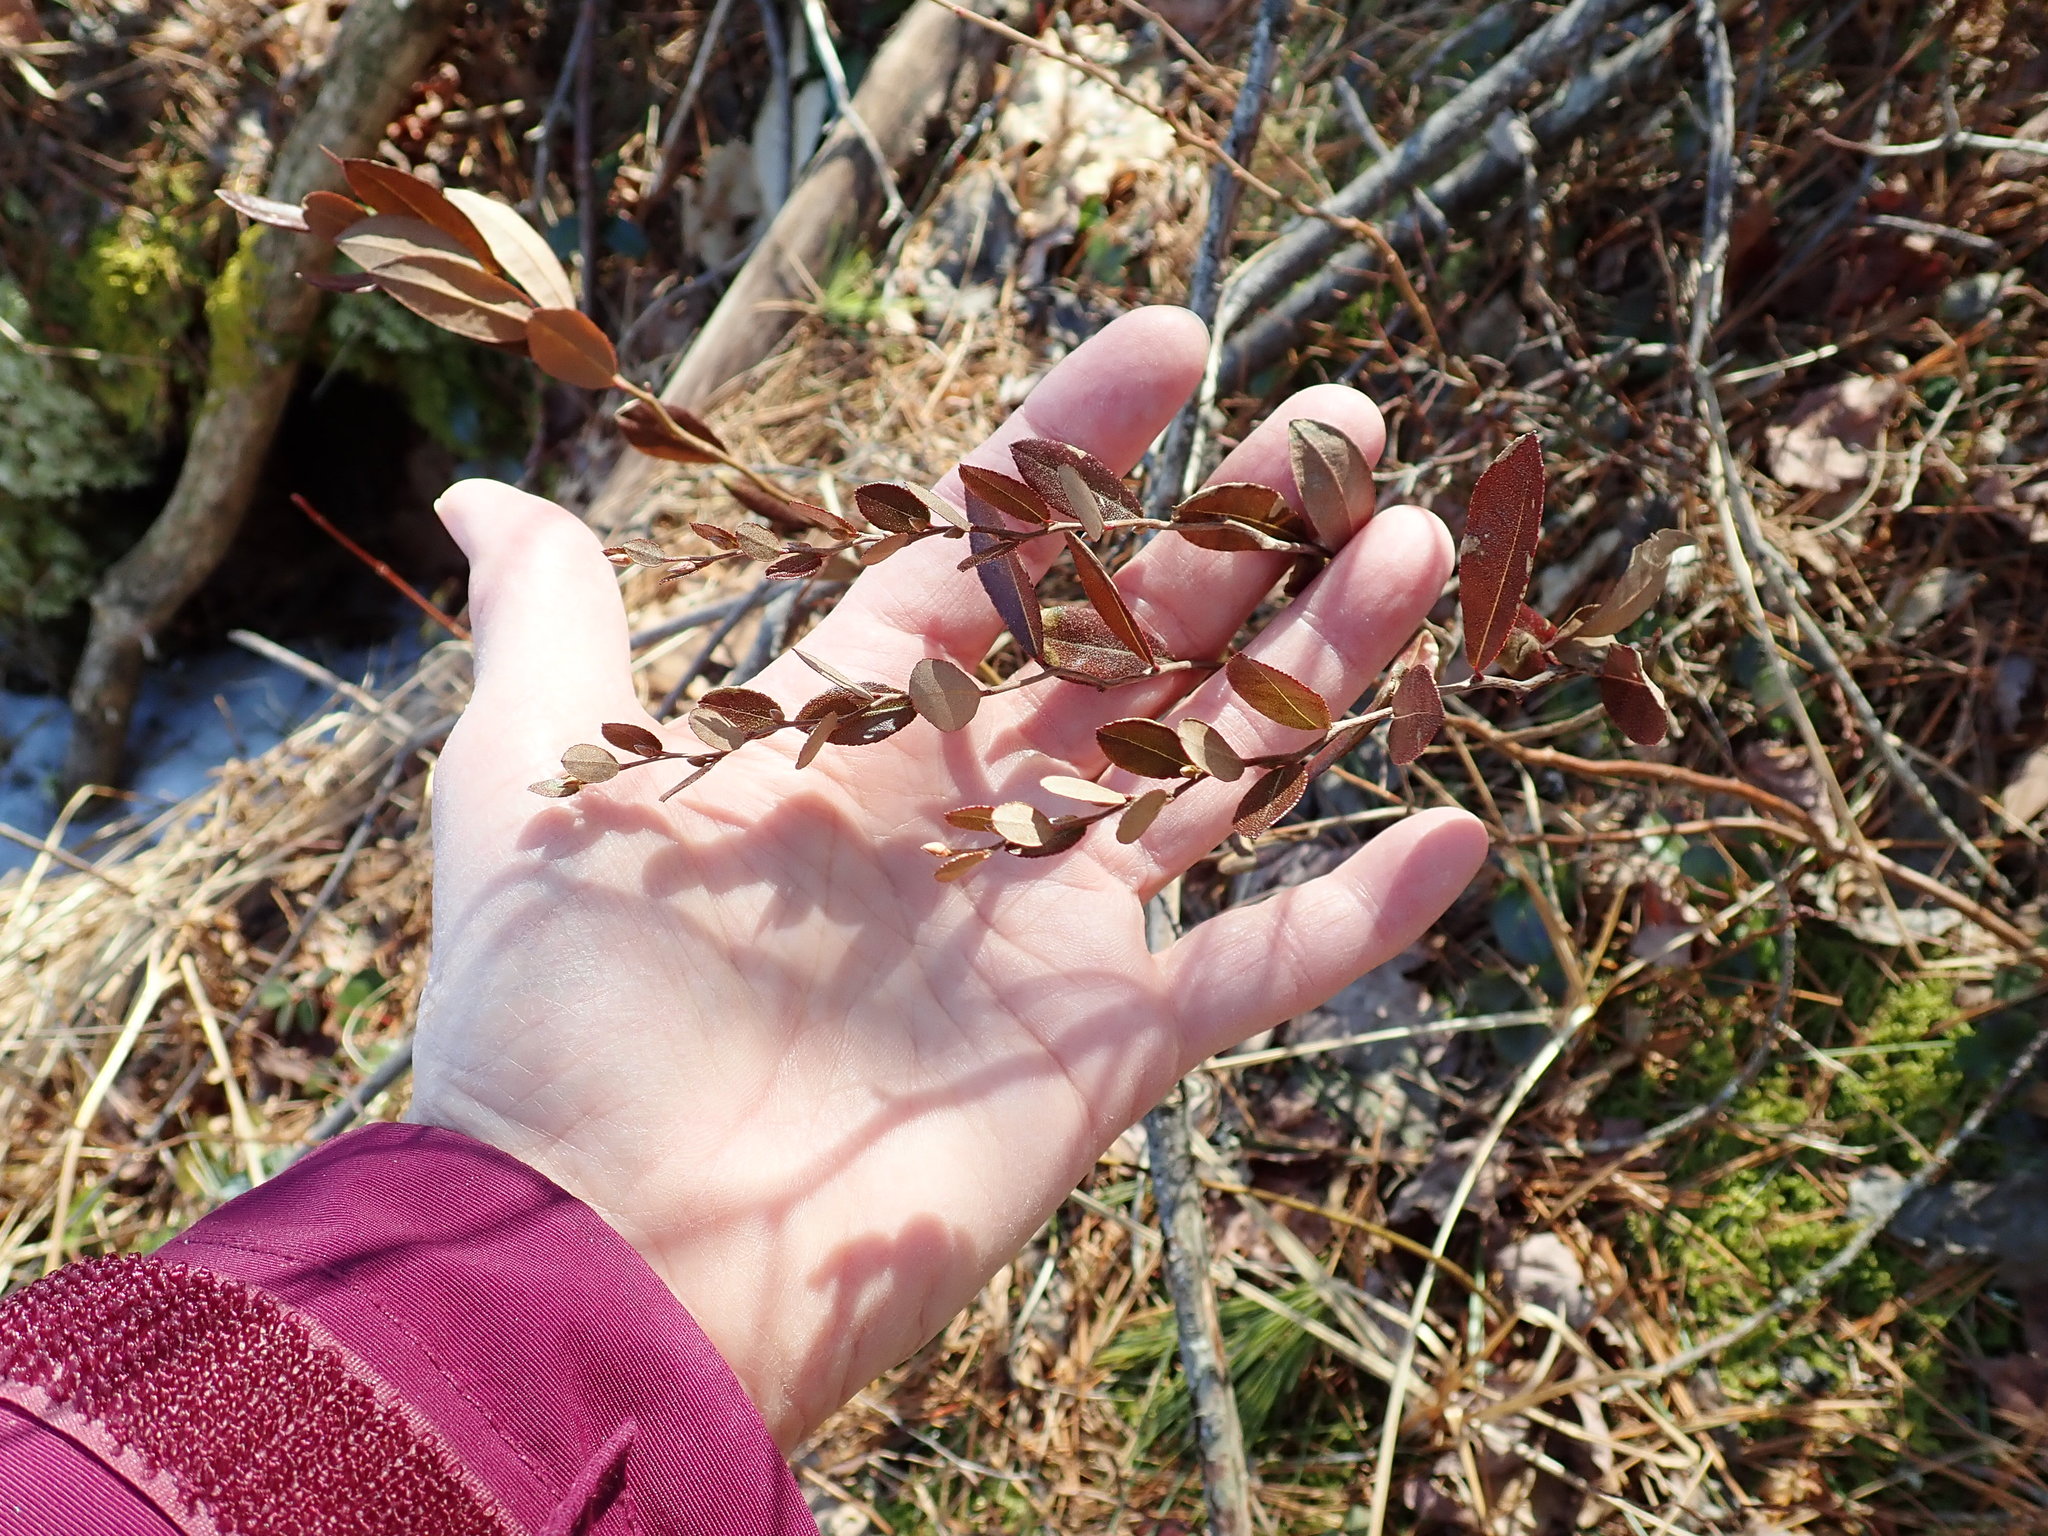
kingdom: Plantae
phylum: Tracheophyta
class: Magnoliopsida
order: Ericales
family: Ericaceae
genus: Chamaedaphne
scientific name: Chamaedaphne calyculata
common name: Leatherleaf
